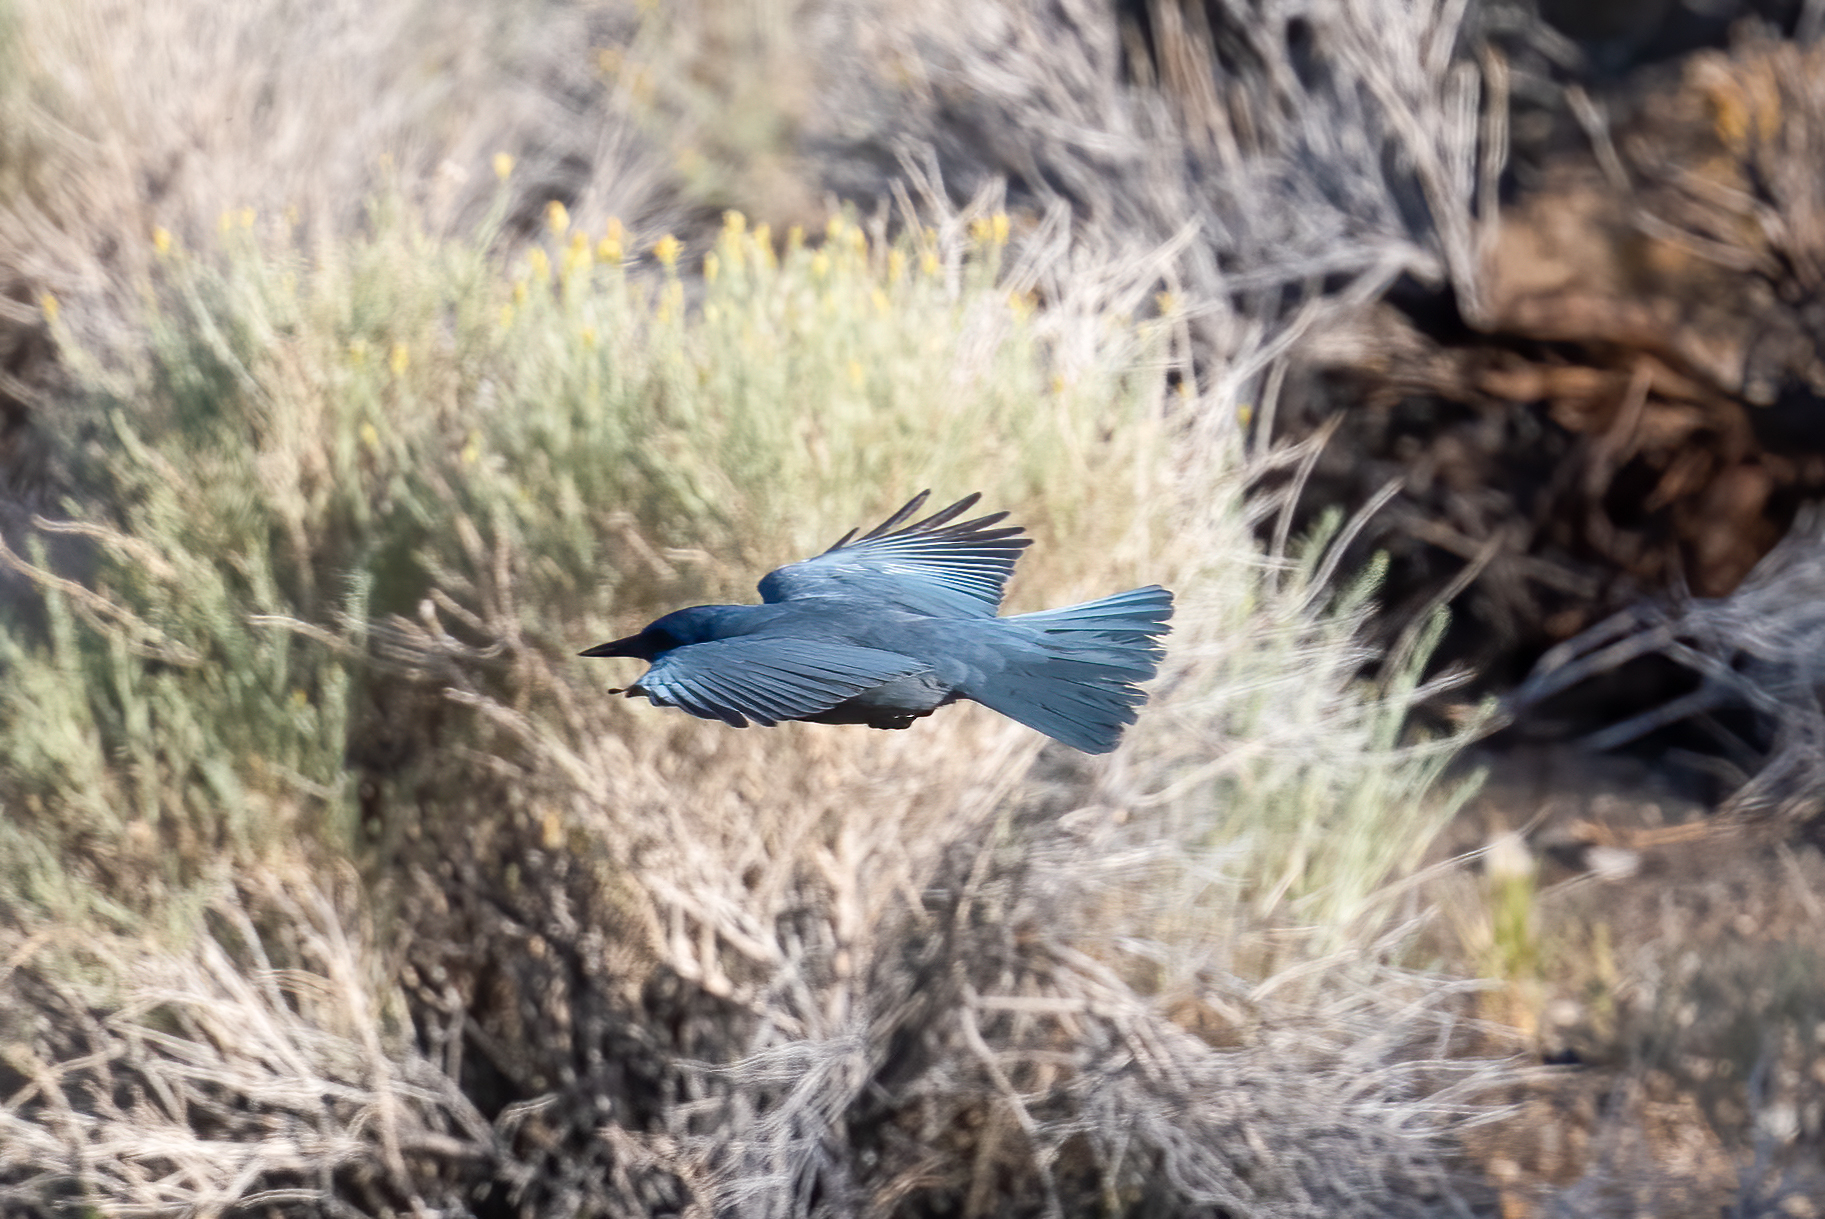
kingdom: Animalia
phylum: Chordata
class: Aves
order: Passeriformes
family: Corvidae
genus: Gymnorhinus
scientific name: Gymnorhinus cyanocephalus
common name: Pinyon jay
